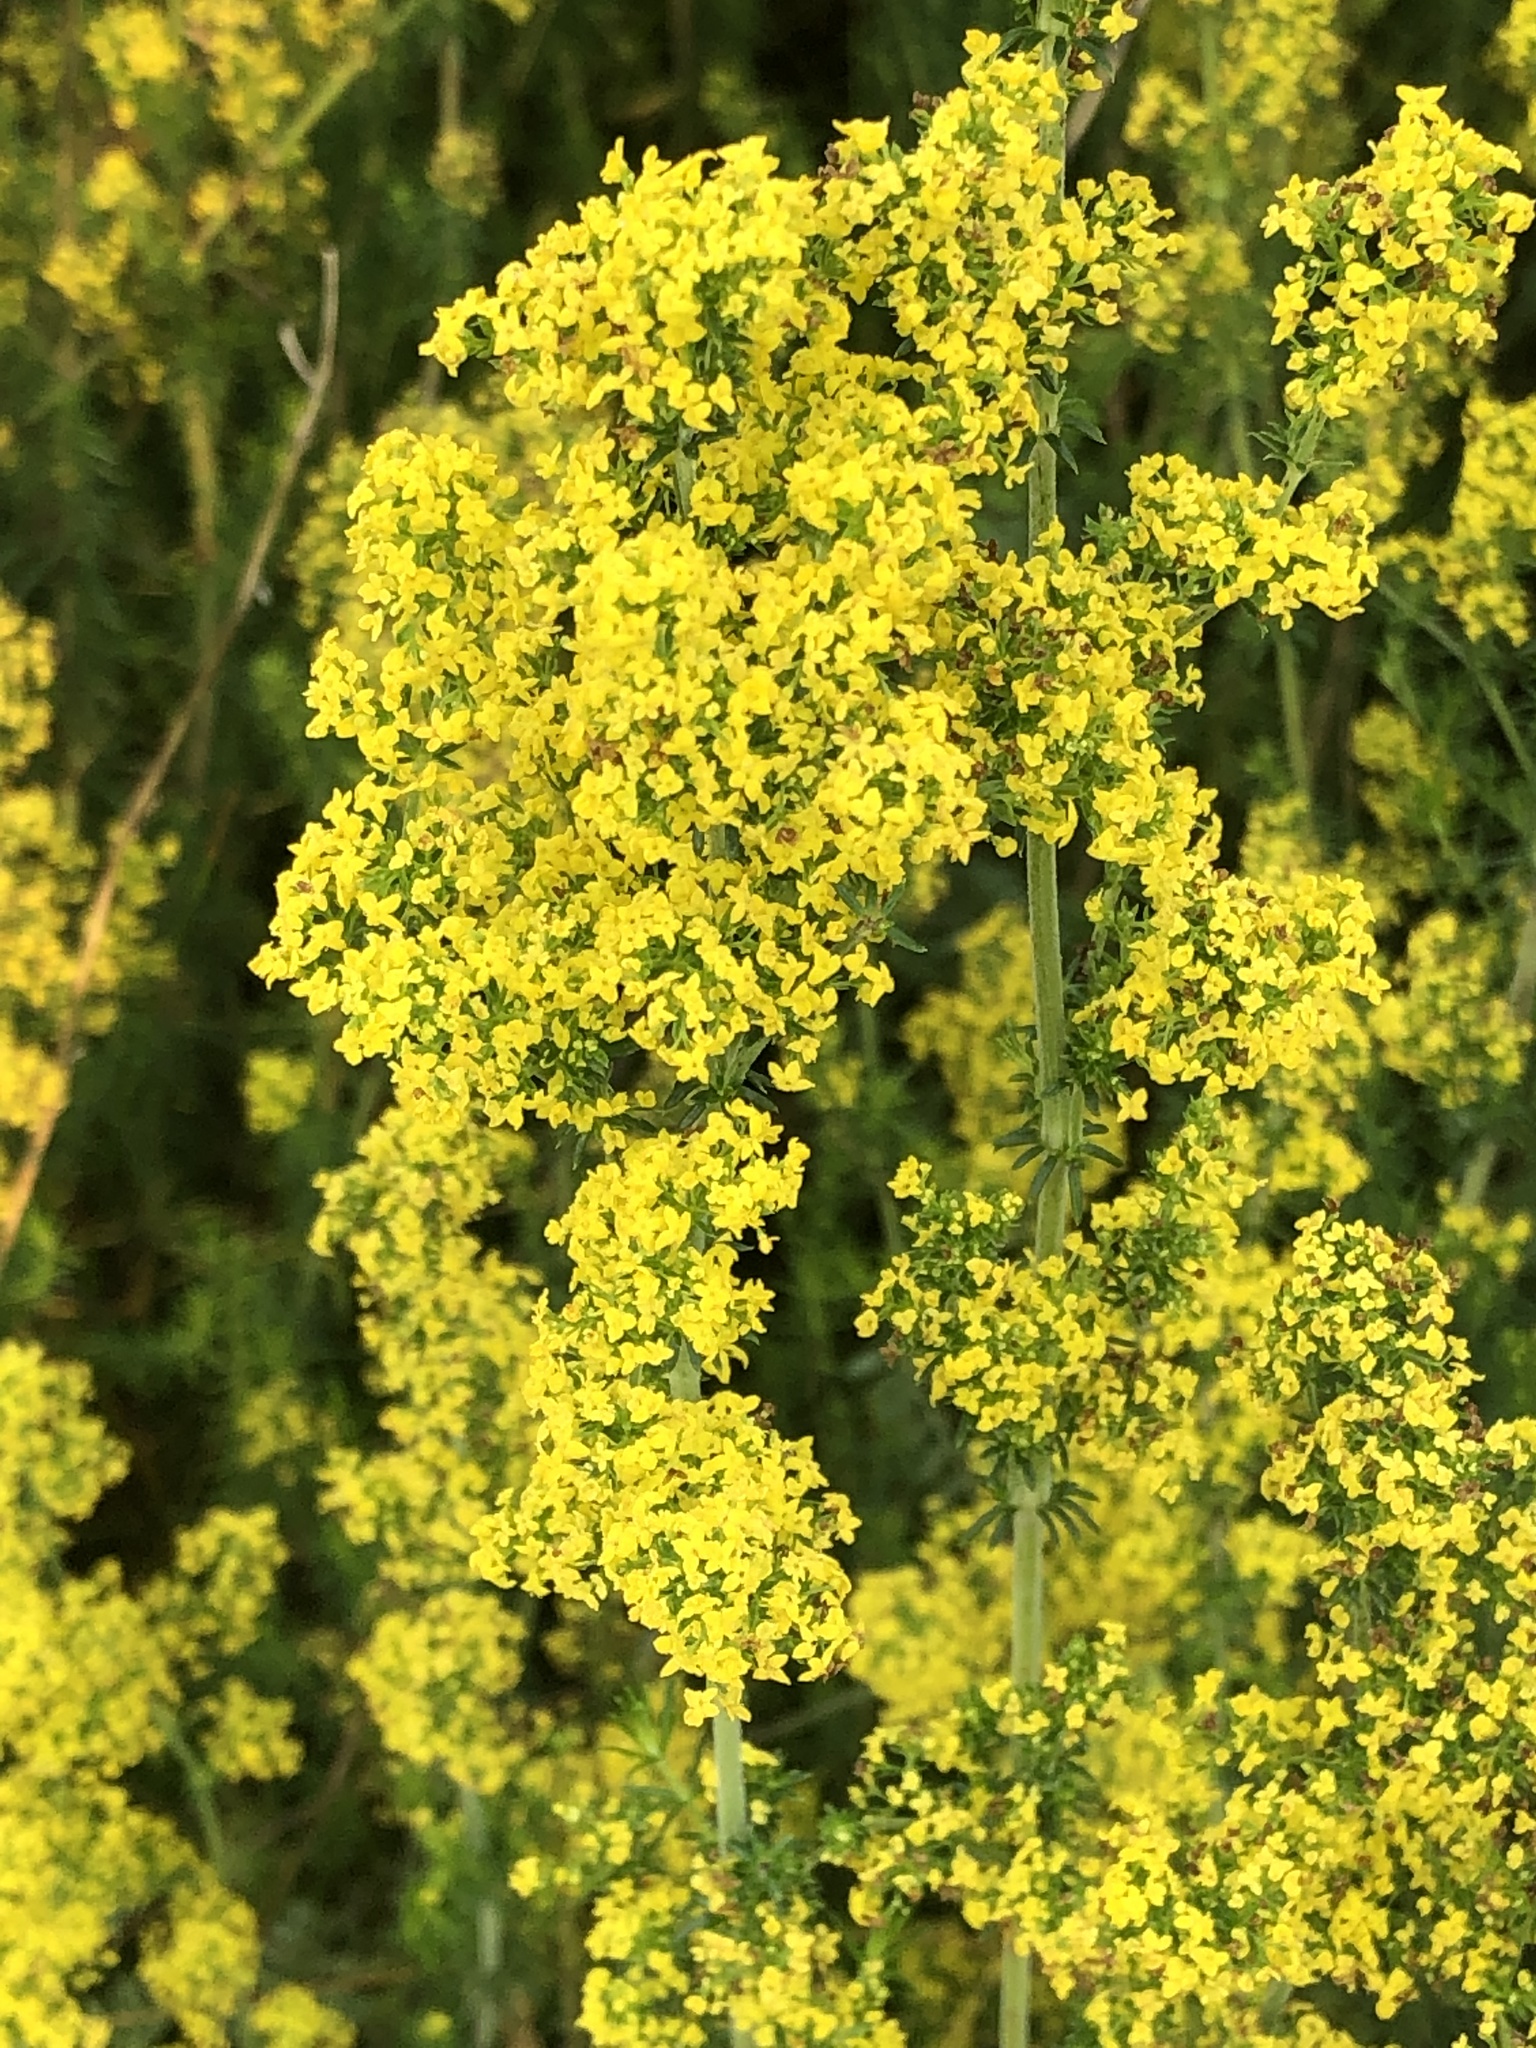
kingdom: Plantae
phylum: Tracheophyta
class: Magnoliopsida
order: Gentianales
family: Rubiaceae
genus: Galium
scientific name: Galium verum
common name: Lady's bedstraw
